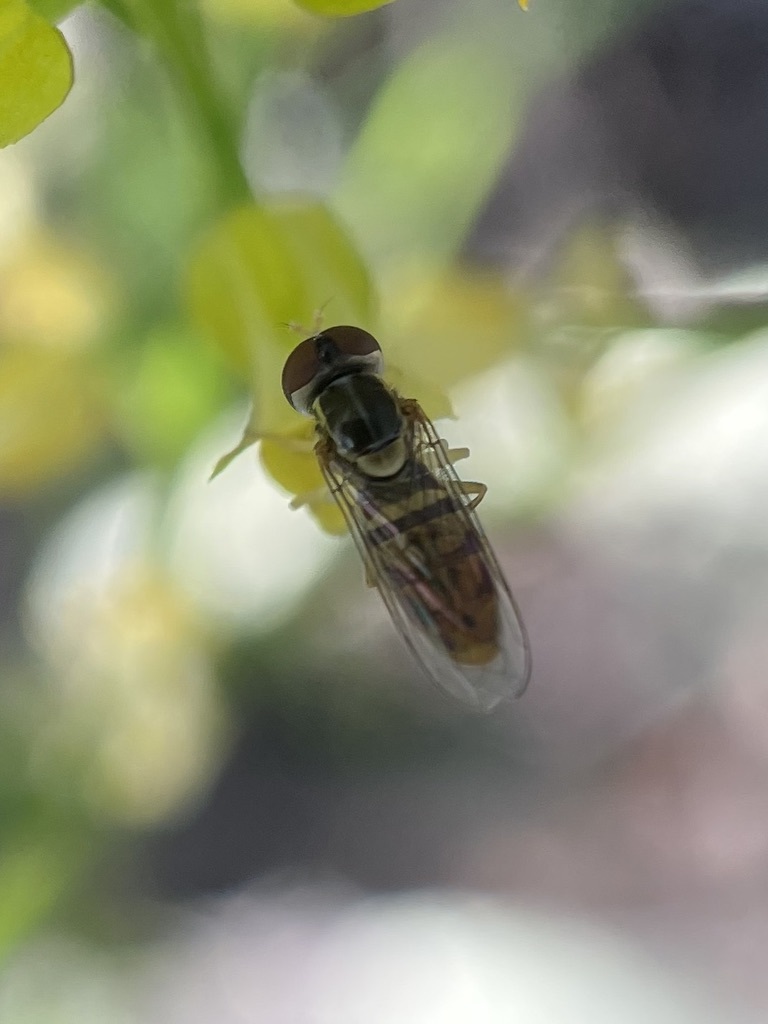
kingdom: Animalia
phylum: Arthropoda
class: Insecta
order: Diptera
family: Syrphidae
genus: Toxomerus
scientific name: Toxomerus marginatus
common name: Syrphid fly
